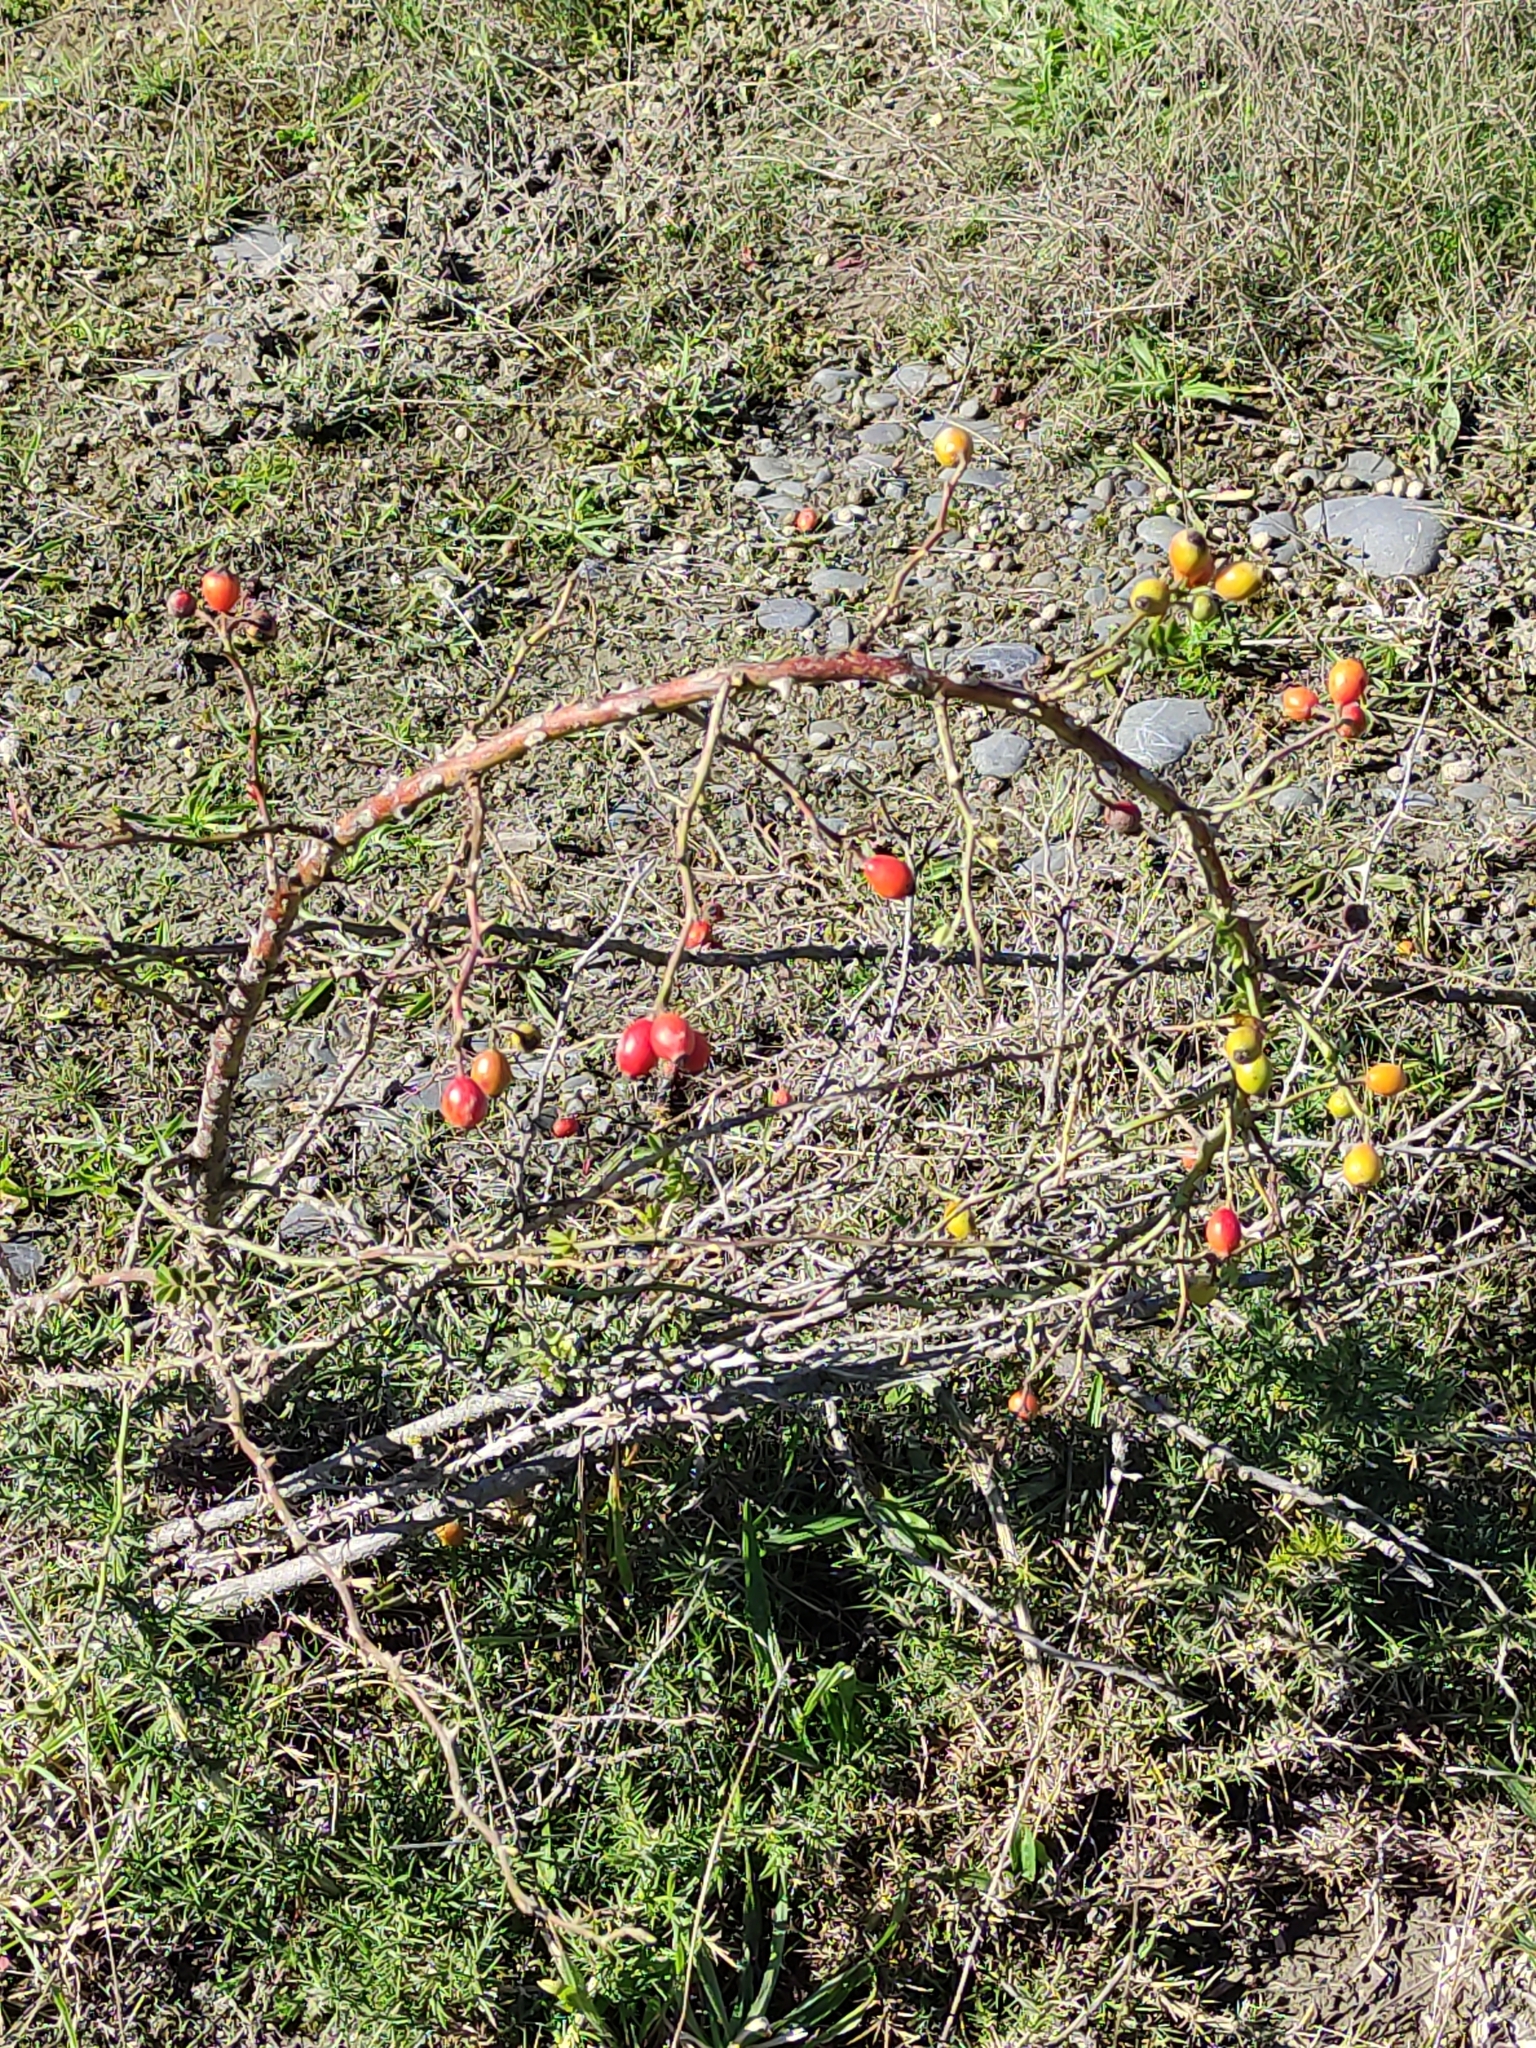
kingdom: Plantae
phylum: Tracheophyta
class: Magnoliopsida
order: Rosales
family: Rosaceae
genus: Rosa
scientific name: Rosa rubiginosa
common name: Sweet-briar
